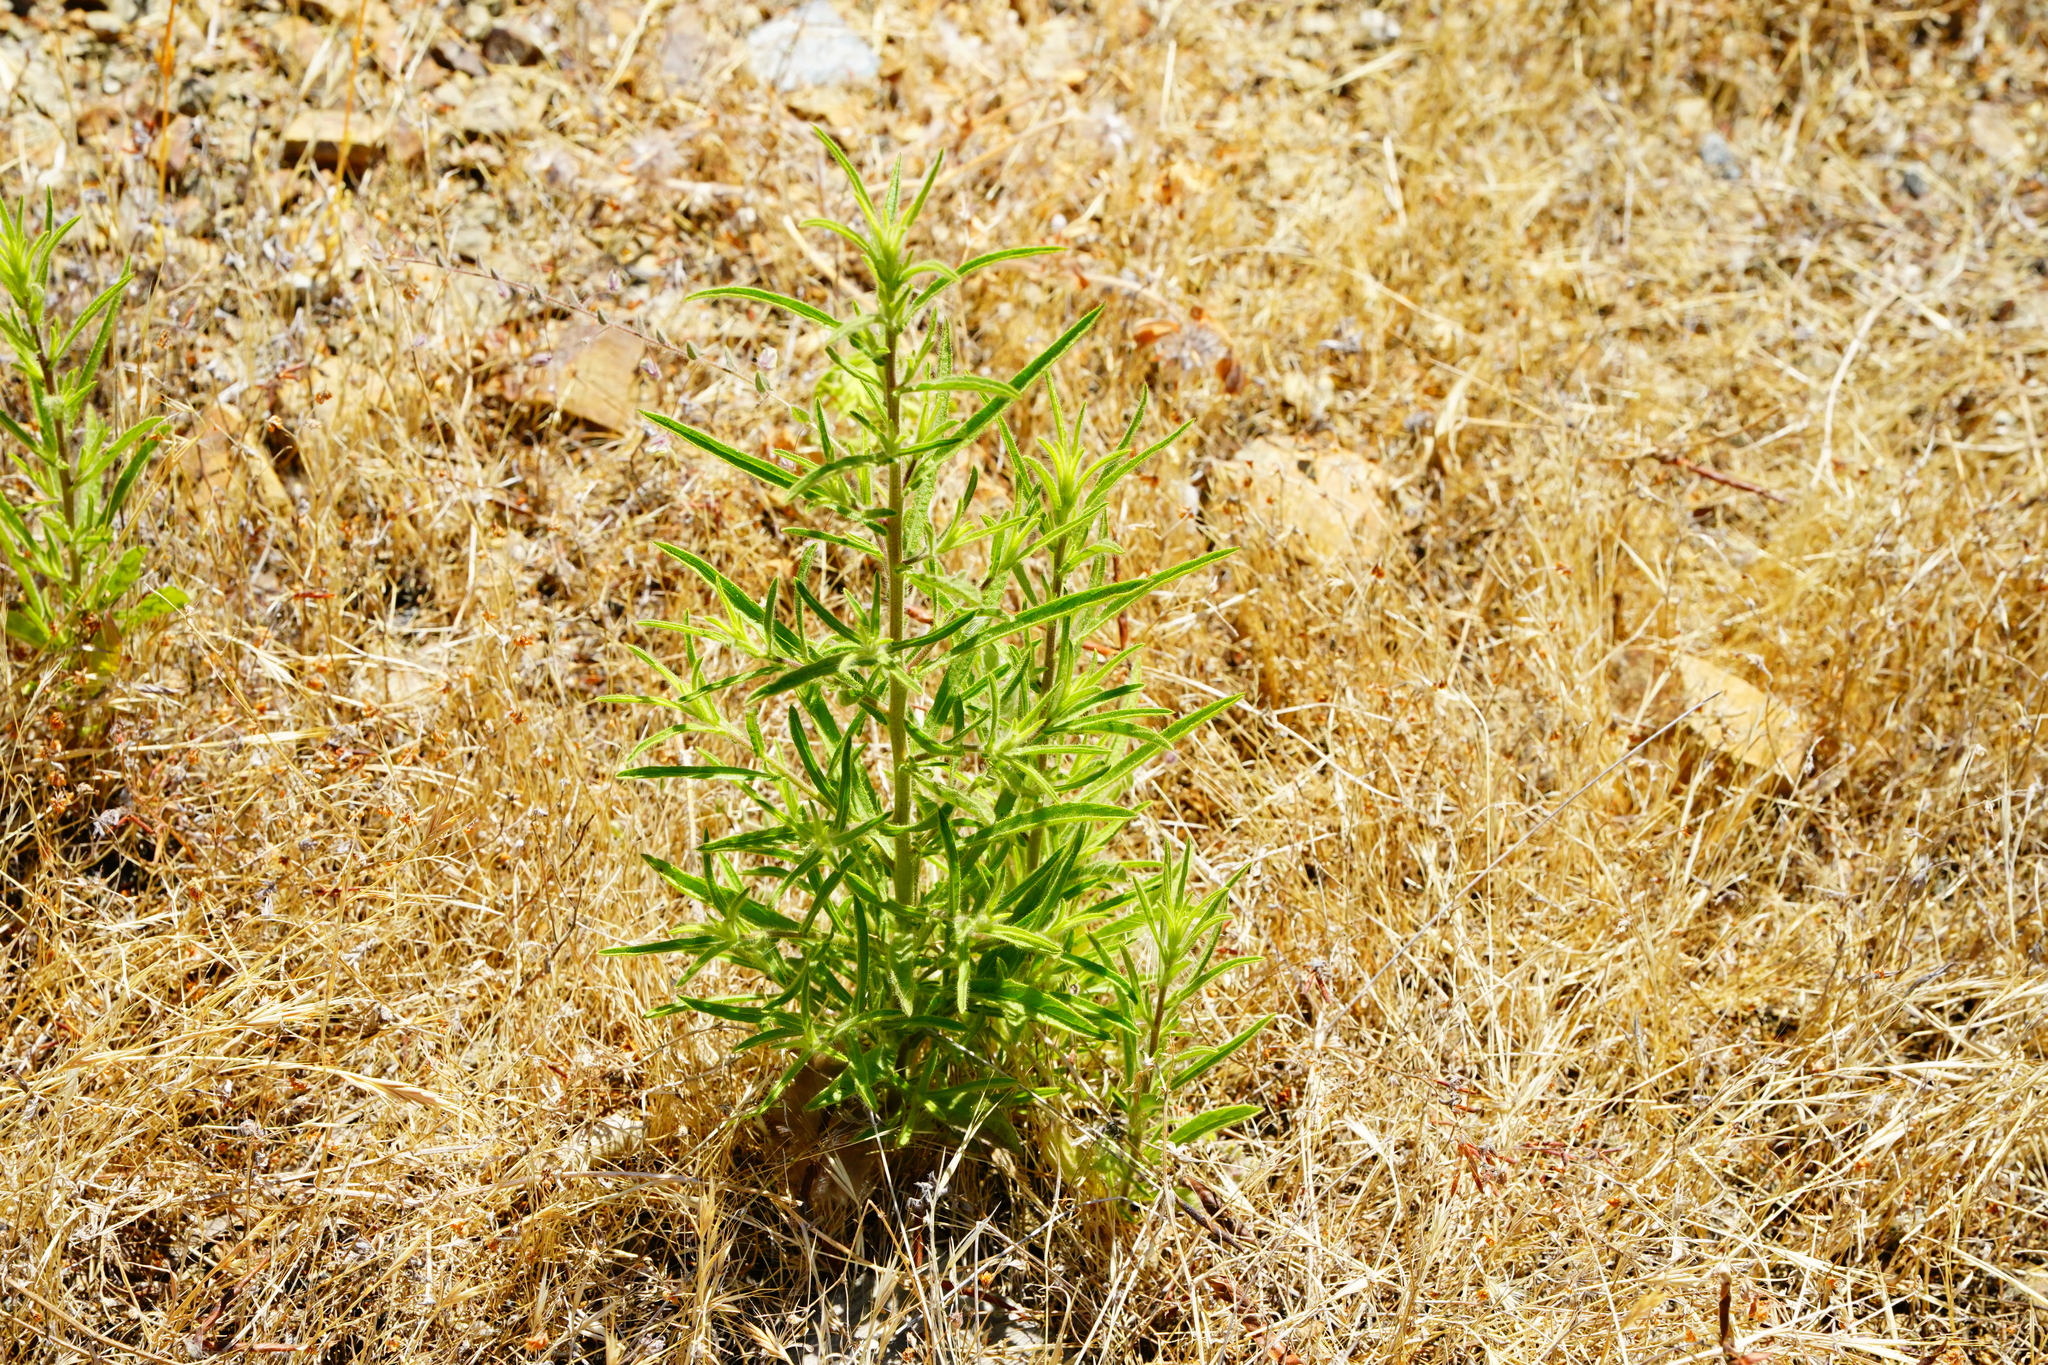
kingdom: Plantae
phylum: Tracheophyta
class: Magnoliopsida
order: Asterales
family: Asteraceae
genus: Dittrichia
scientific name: Dittrichia graveolens
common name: Stinking fleabane
